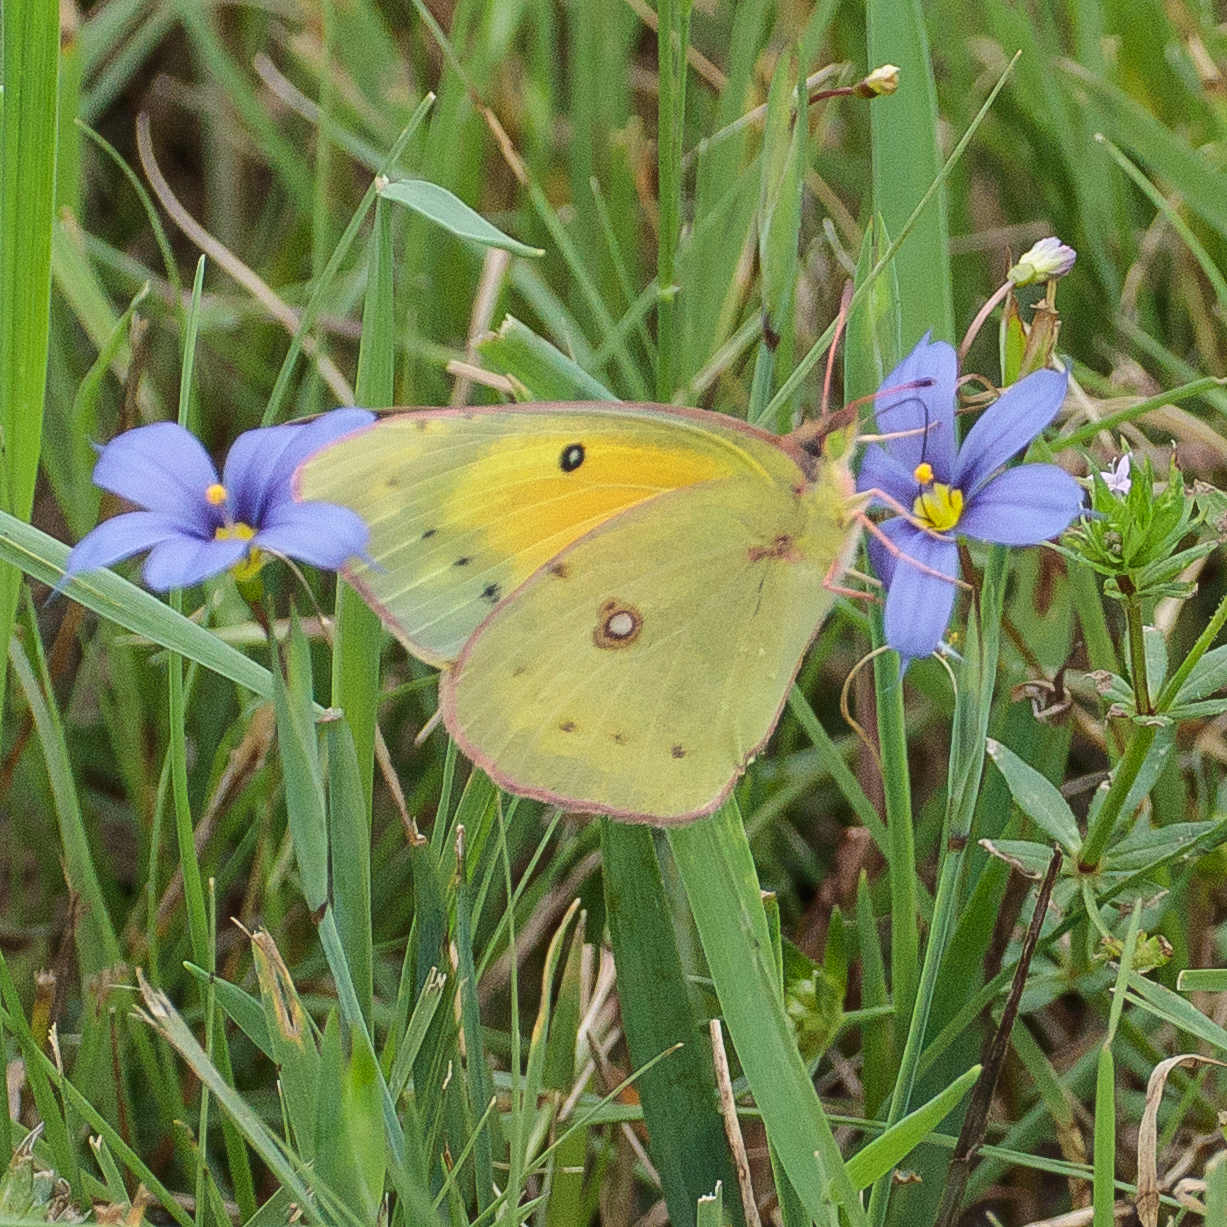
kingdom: Animalia
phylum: Arthropoda
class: Insecta
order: Lepidoptera
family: Pieridae
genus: Colias
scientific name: Colias eurytheme
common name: Alfalfa butterfly
